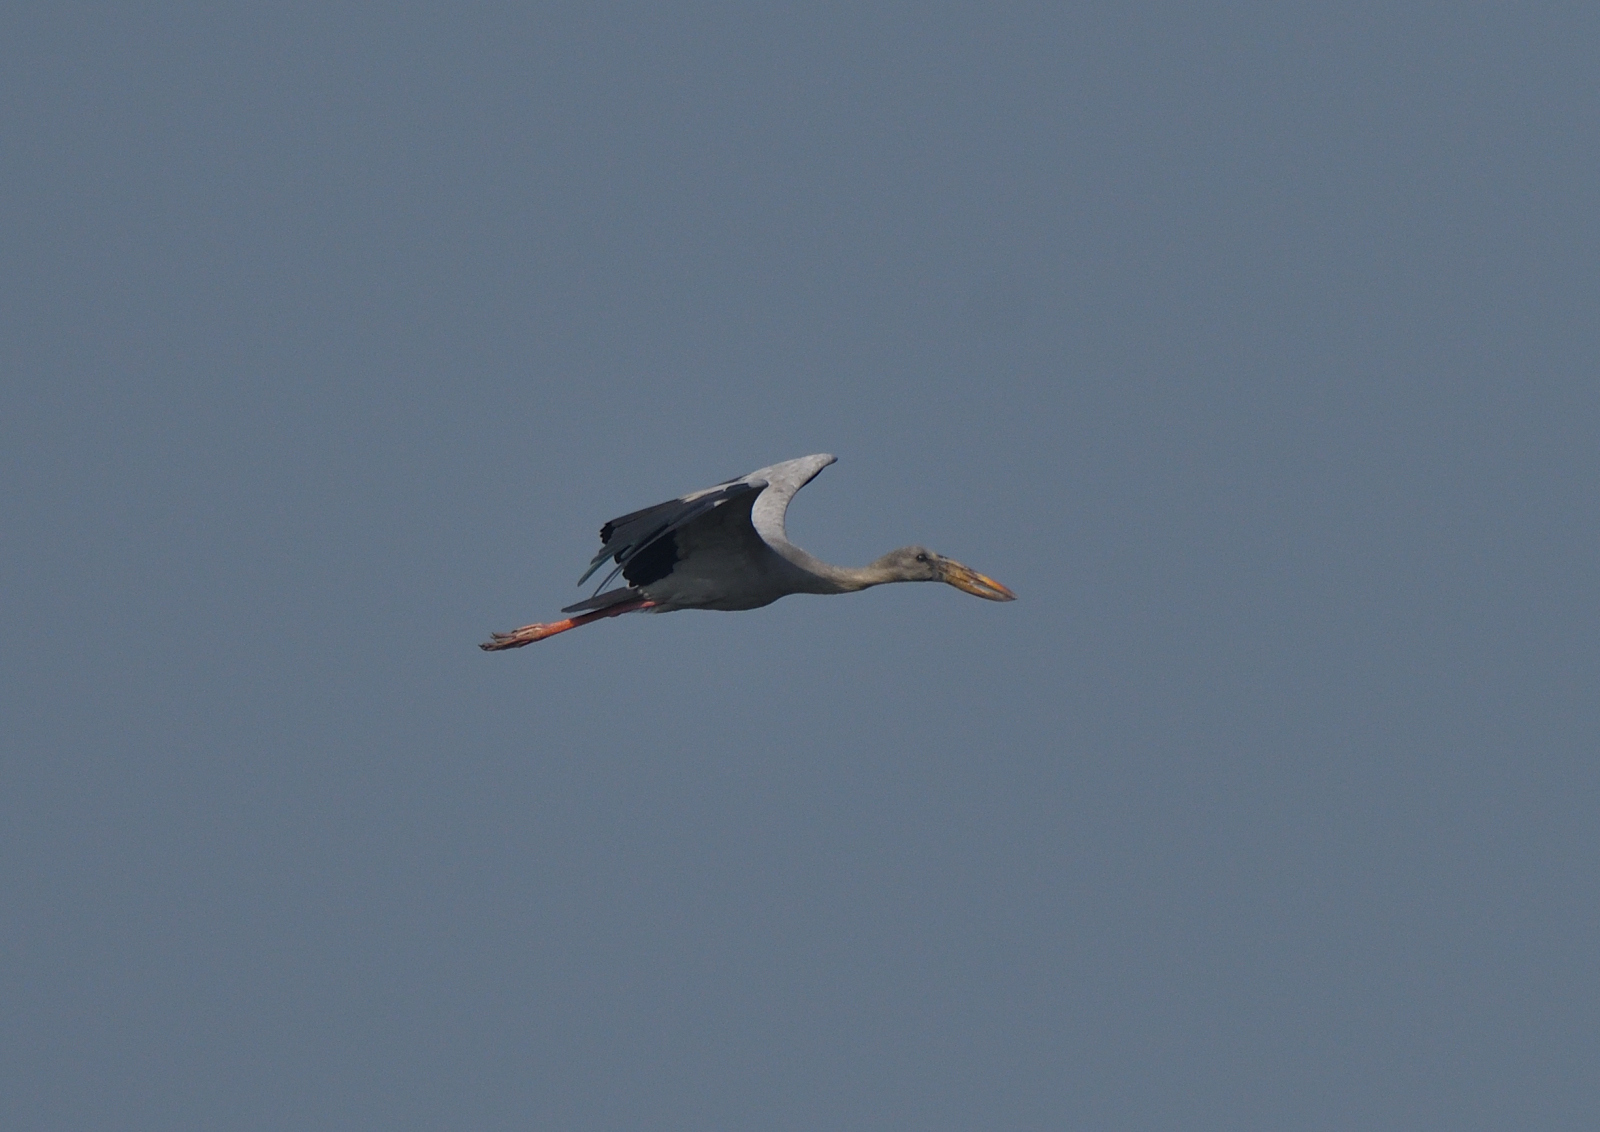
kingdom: Animalia
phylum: Chordata
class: Aves
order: Ciconiiformes
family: Ciconiidae
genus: Anastomus
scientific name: Anastomus oscitans
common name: Asian openbill
